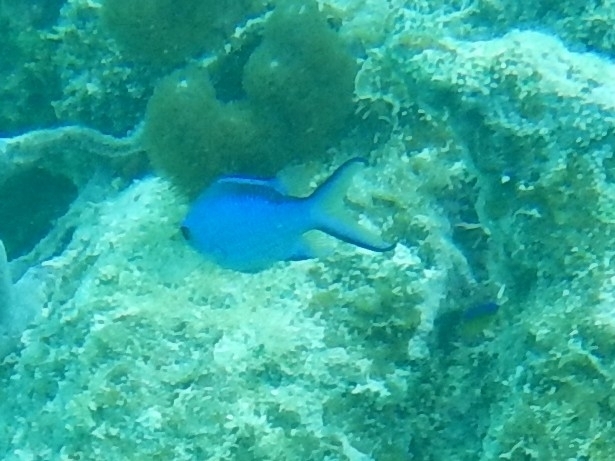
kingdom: Animalia
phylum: Chordata
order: Perciformes
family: Pomacentridae
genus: Chromis
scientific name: Chromis cyanea
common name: Blue chromis
